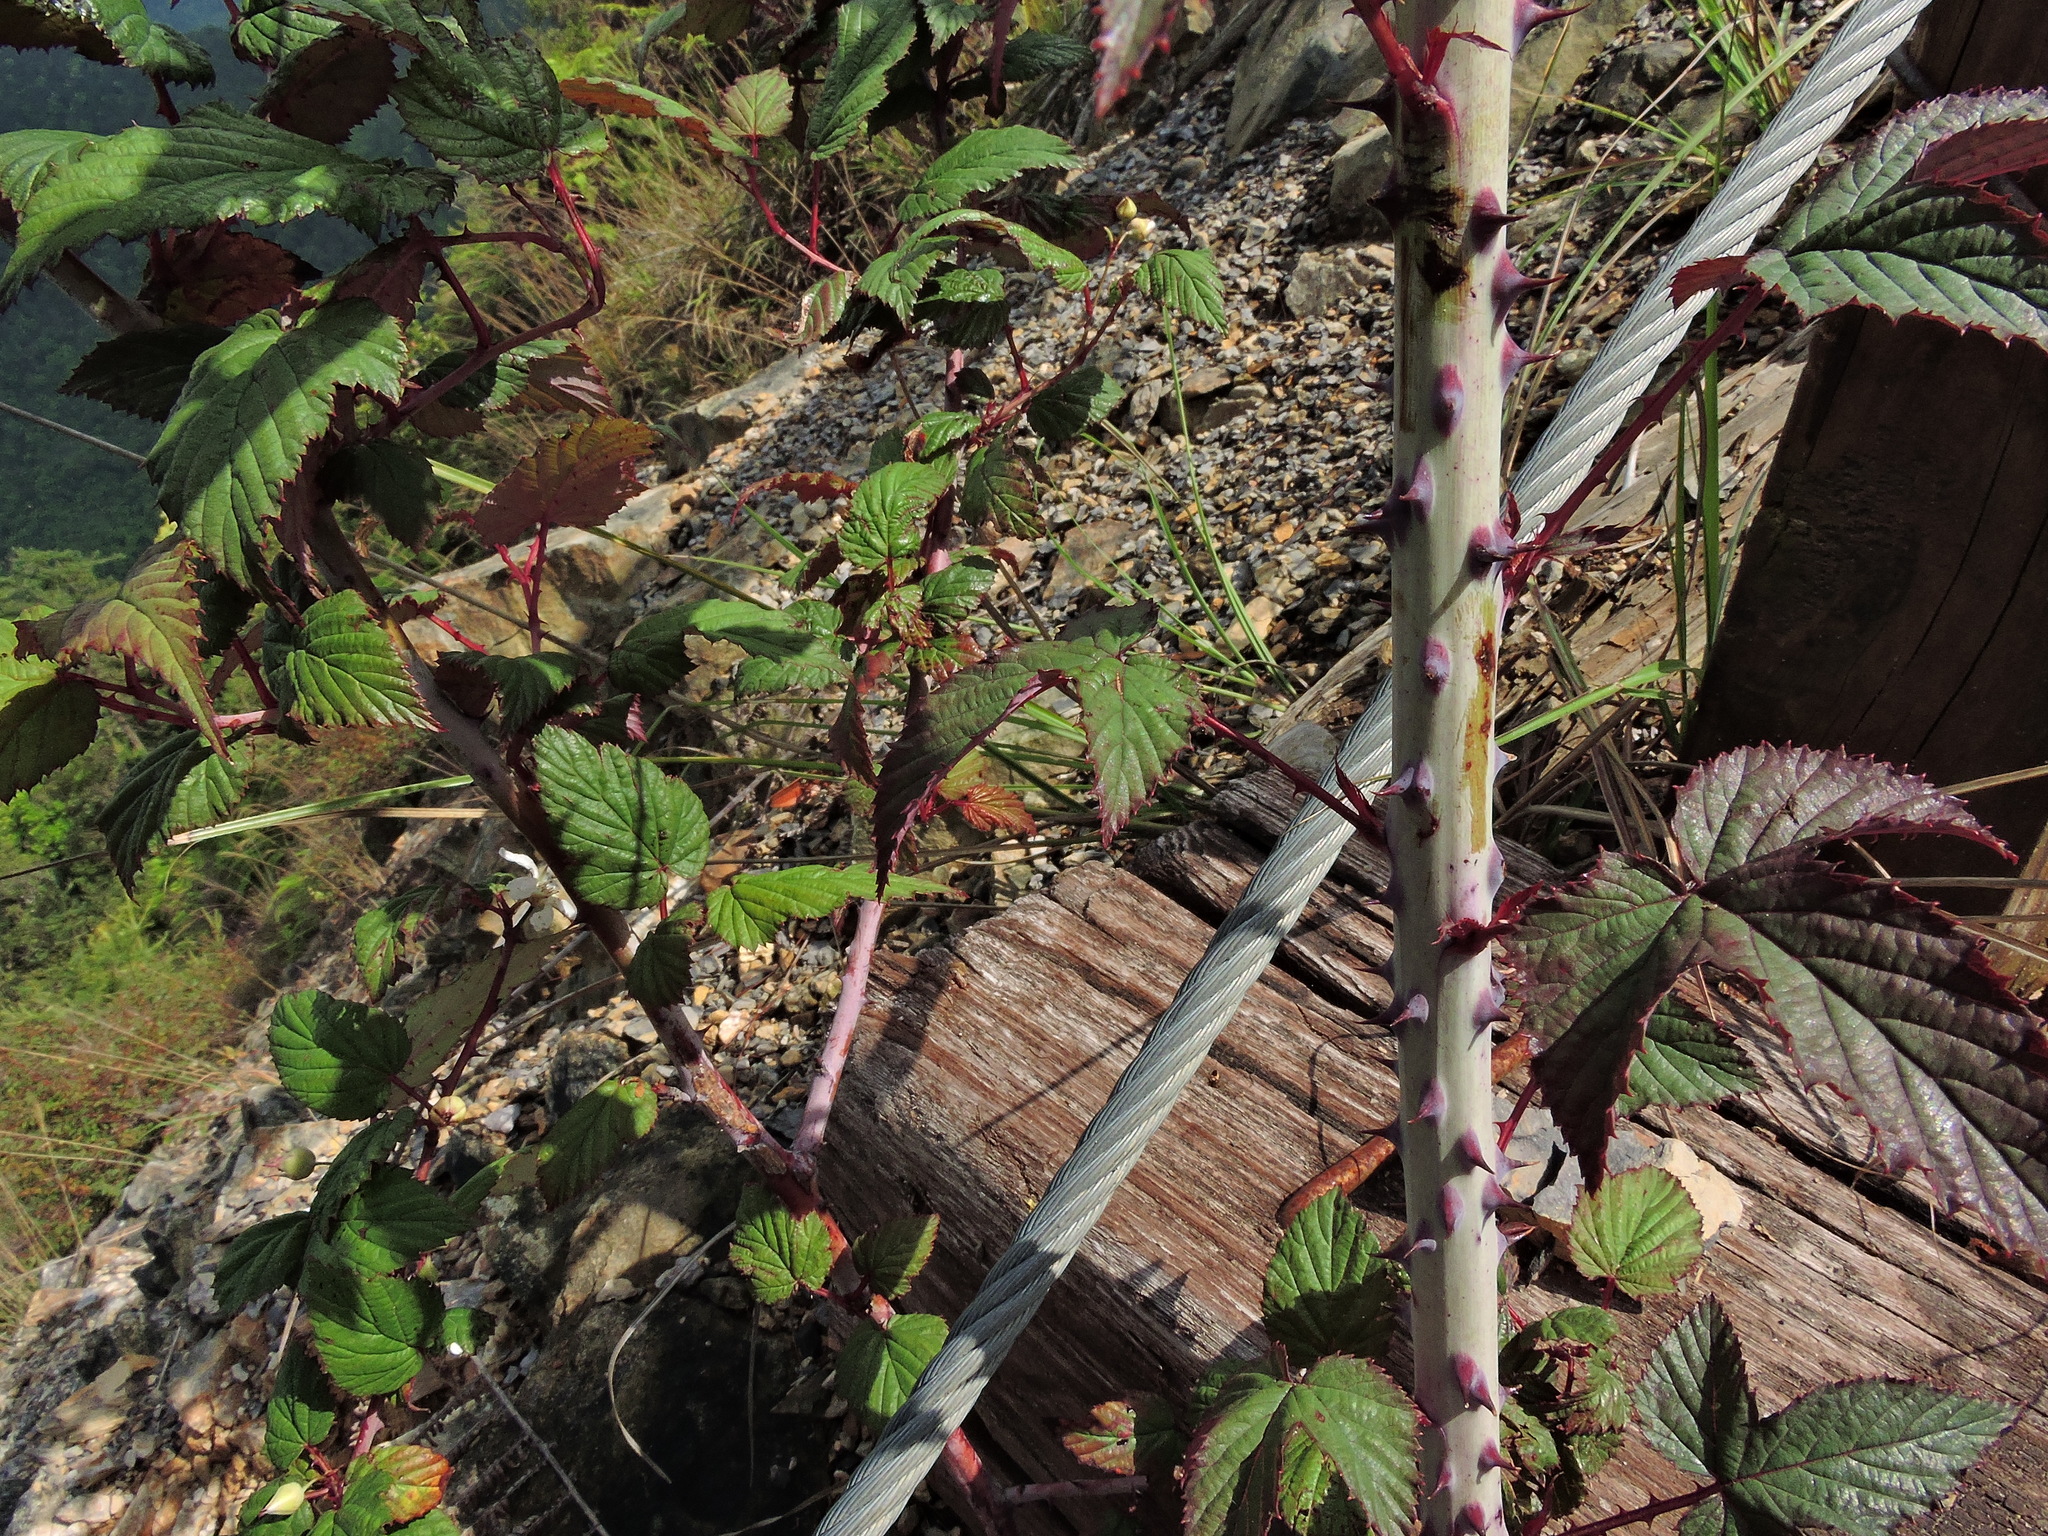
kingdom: Plantae
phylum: Tracheophyta
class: Magnoliopsida
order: Rosales
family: Rosaceae
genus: Rubus
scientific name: Rubus subcrataegifolius
